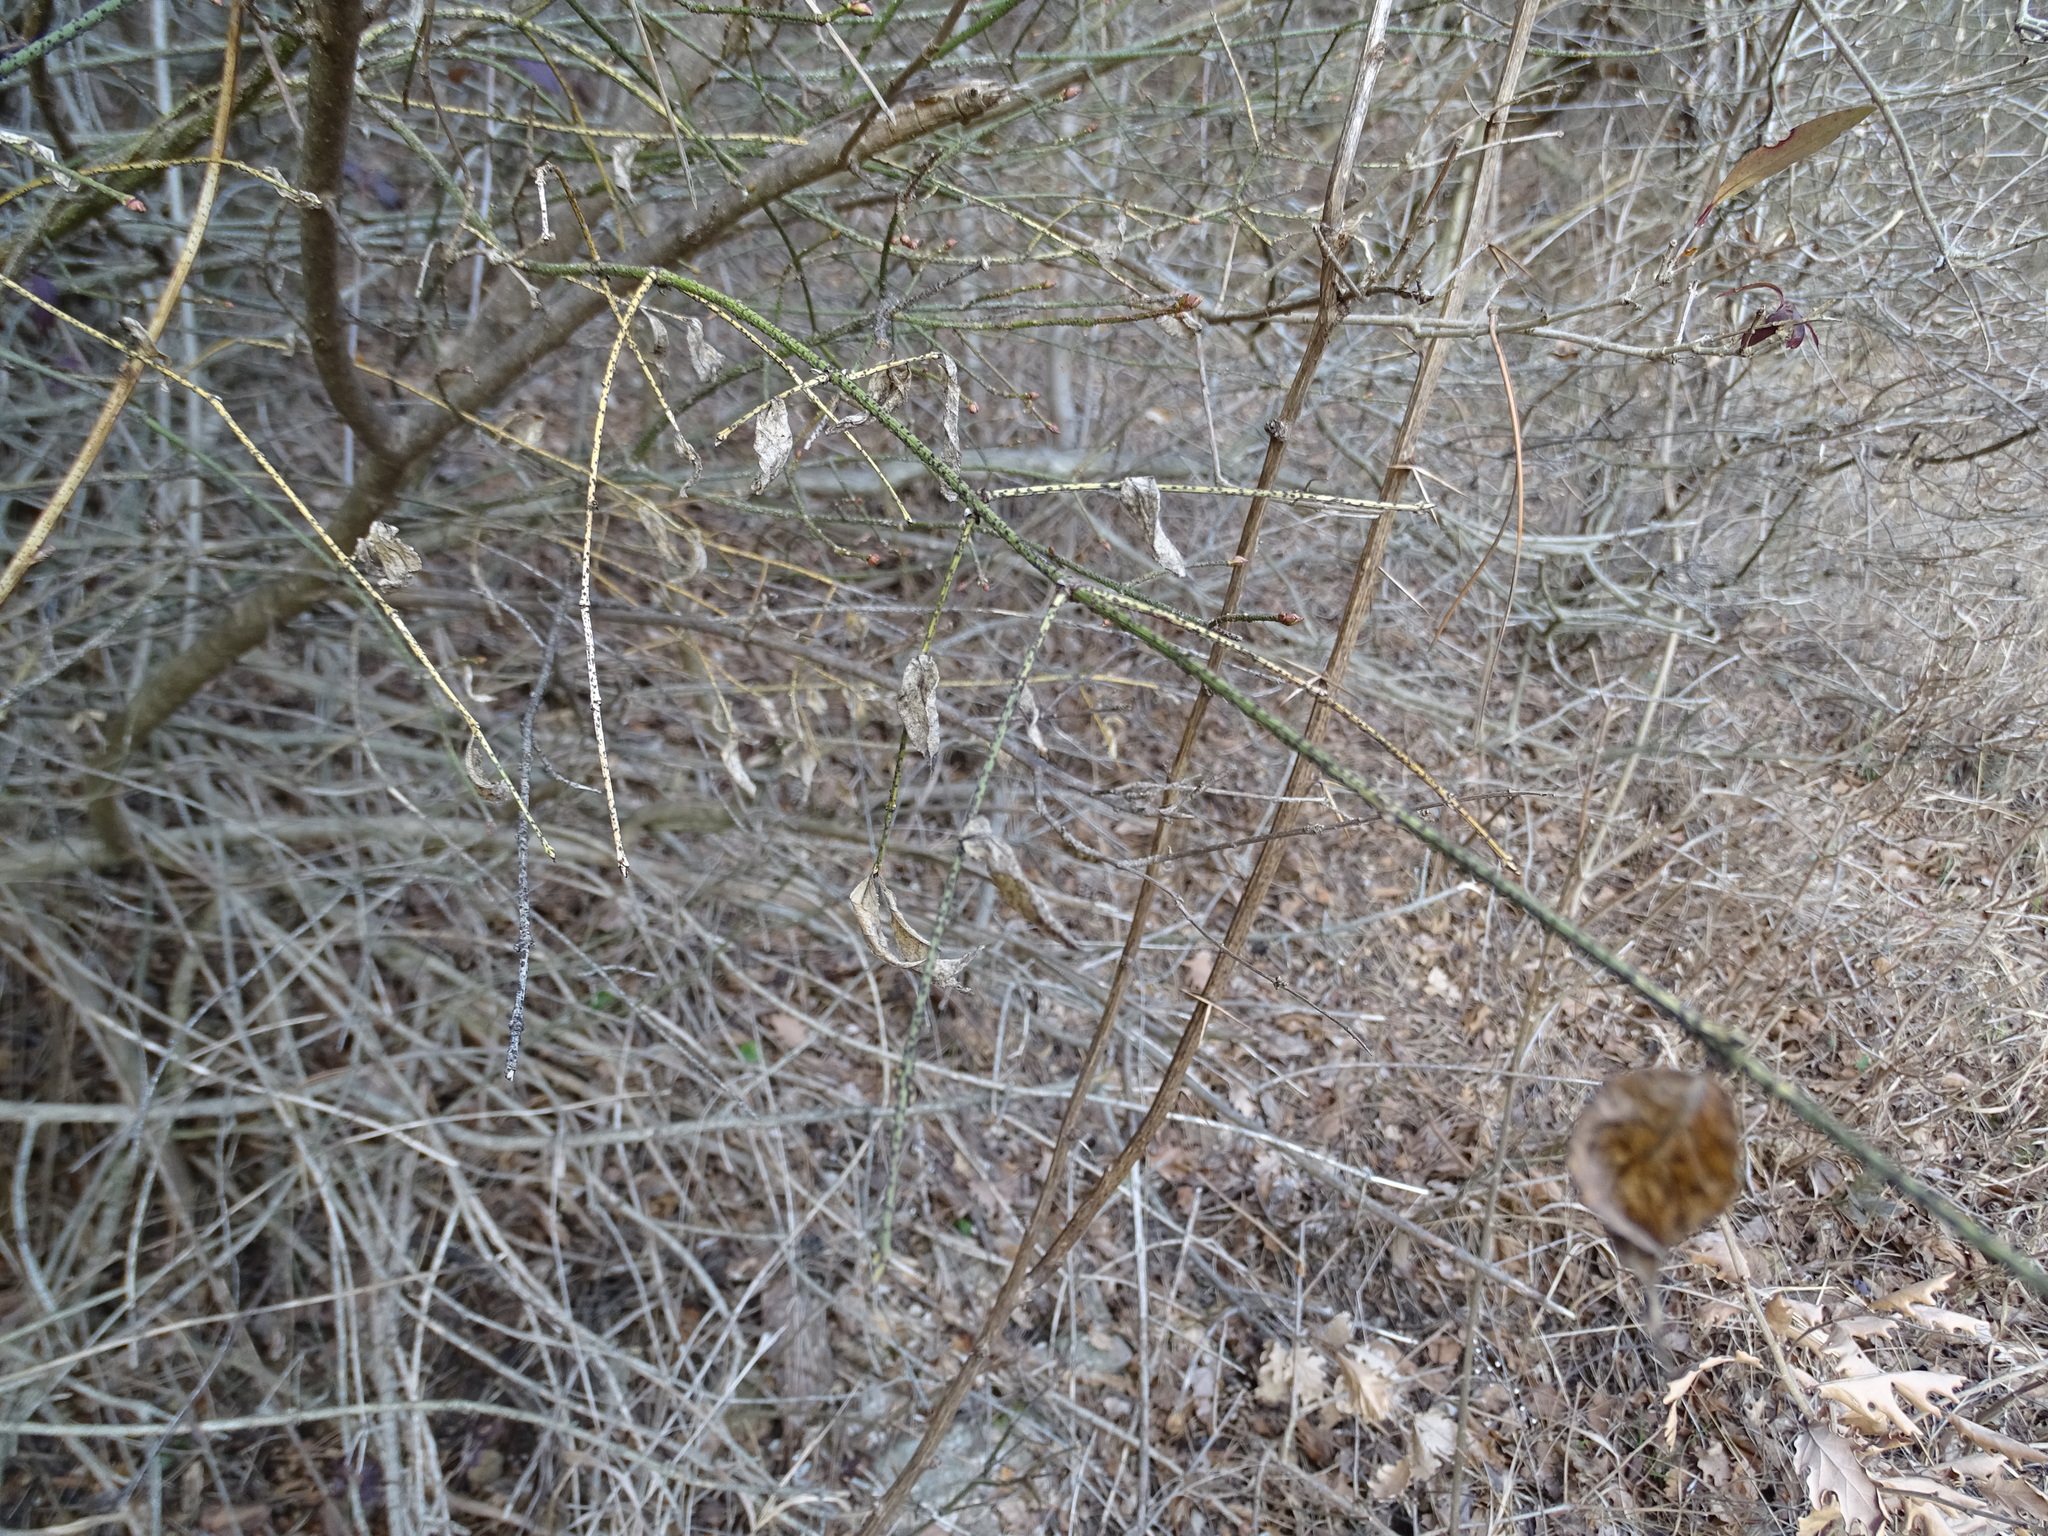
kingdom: Plantae
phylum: Tracheophyta
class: Magnoliopsida
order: Celastrales
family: Celastraceae
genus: Euonymus
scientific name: Euonymus verrucosus
